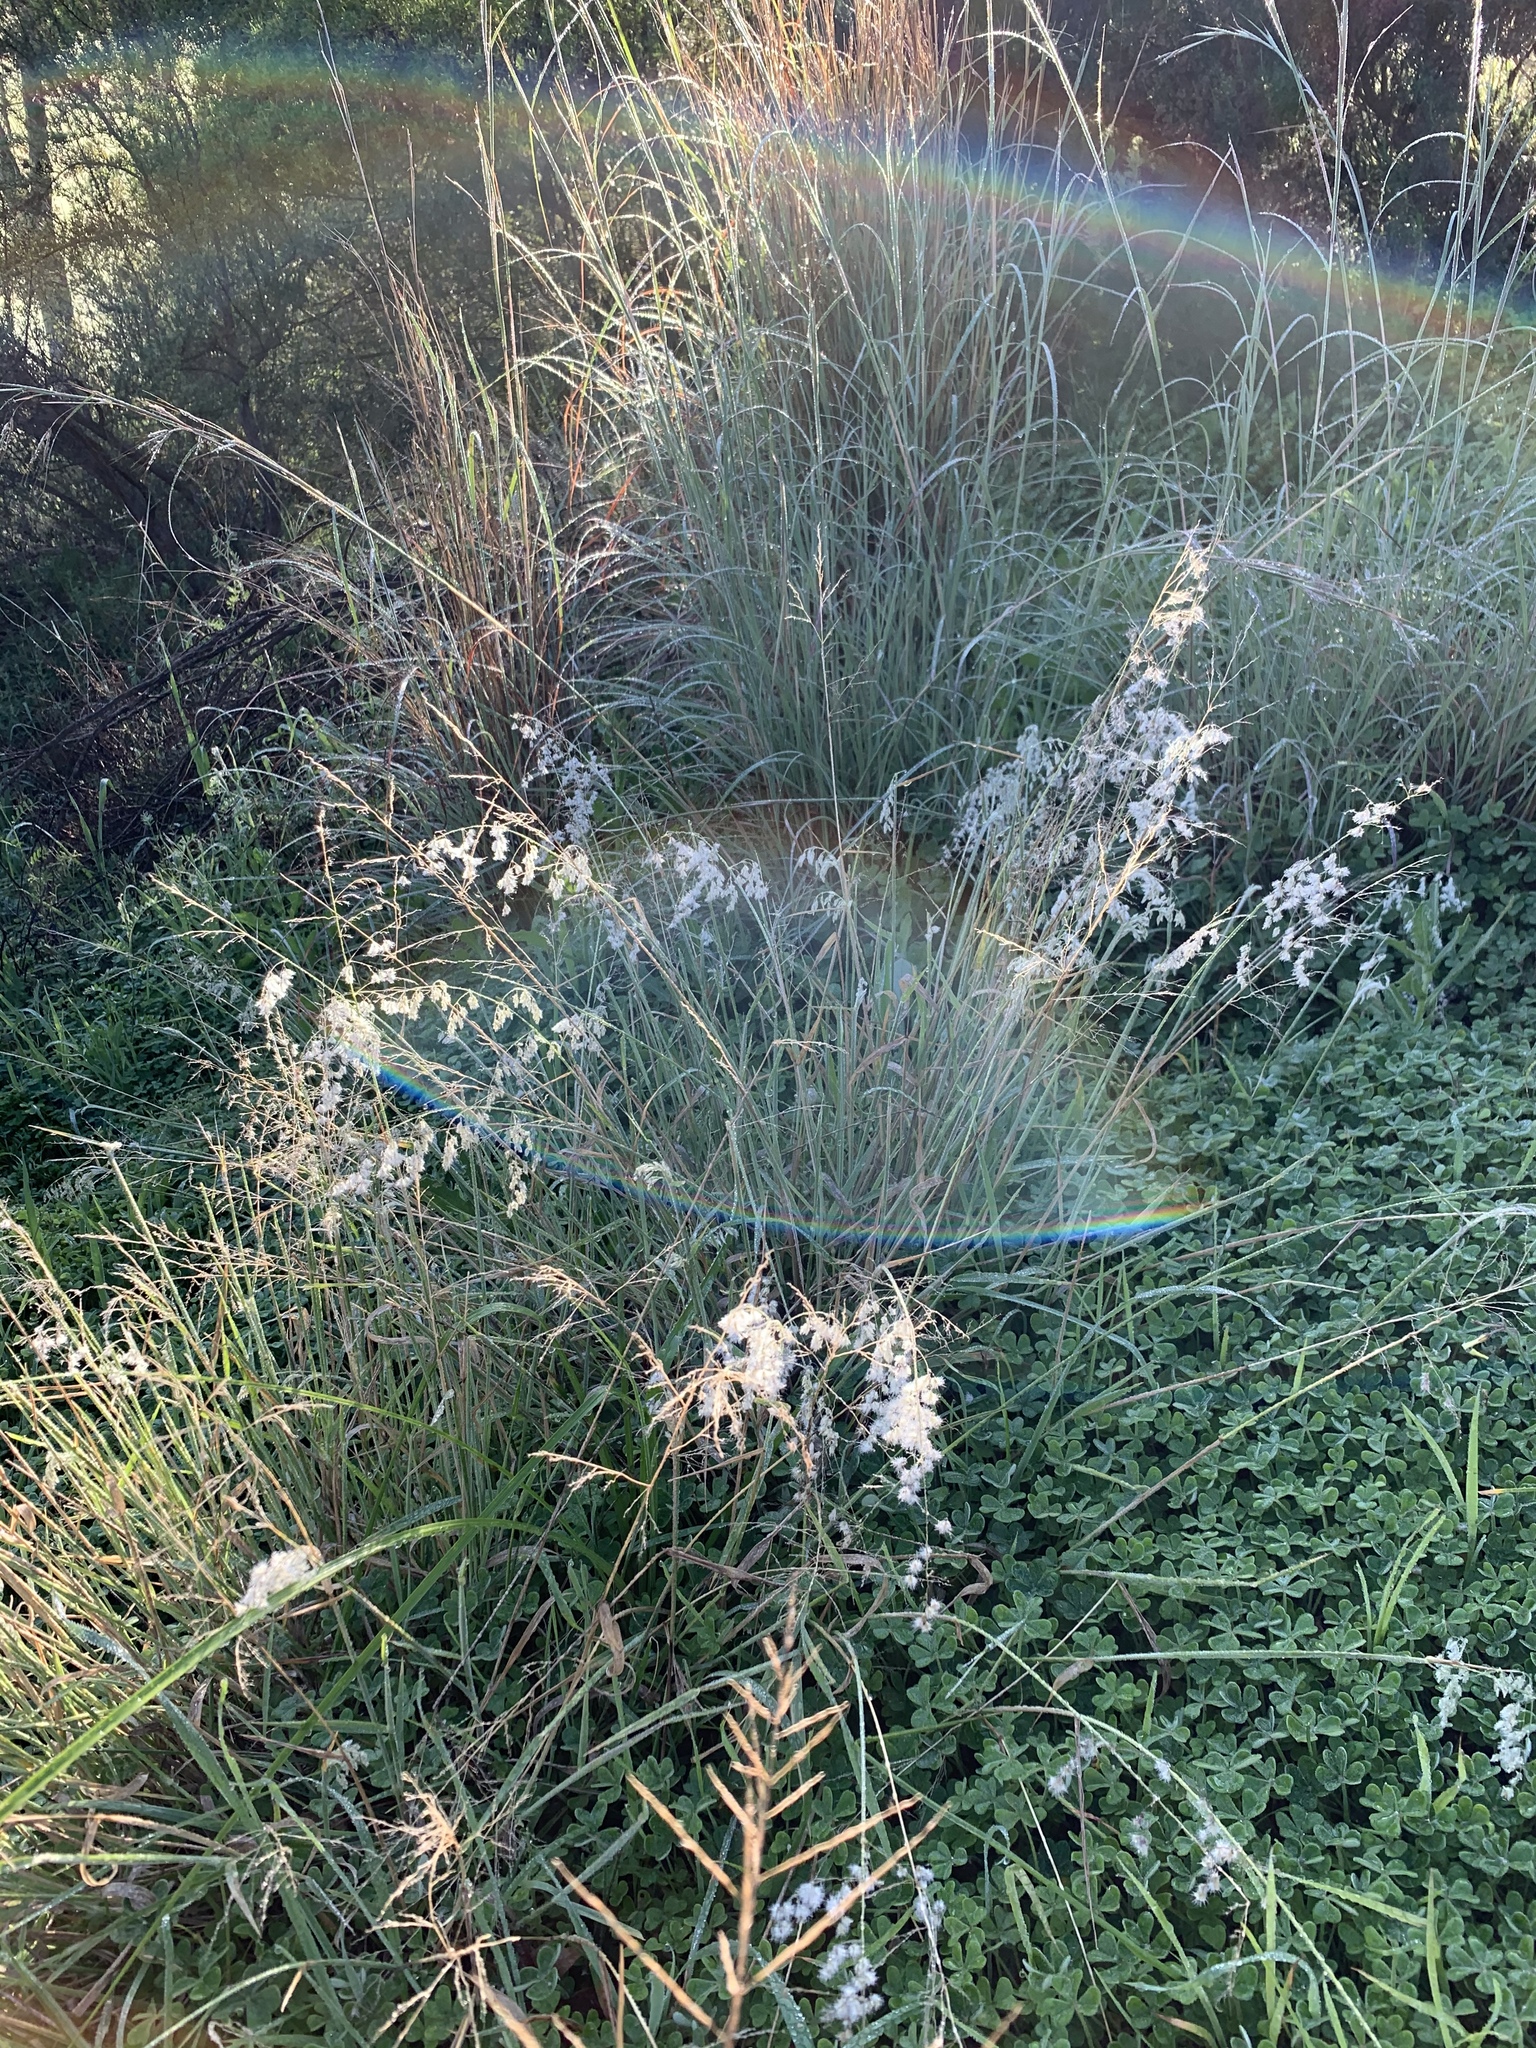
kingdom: Plantae
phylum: Tracheophyta
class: Liliopsida
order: Poales
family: Poaceae
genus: Melinis
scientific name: Melinis repens
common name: Rose natal grass
